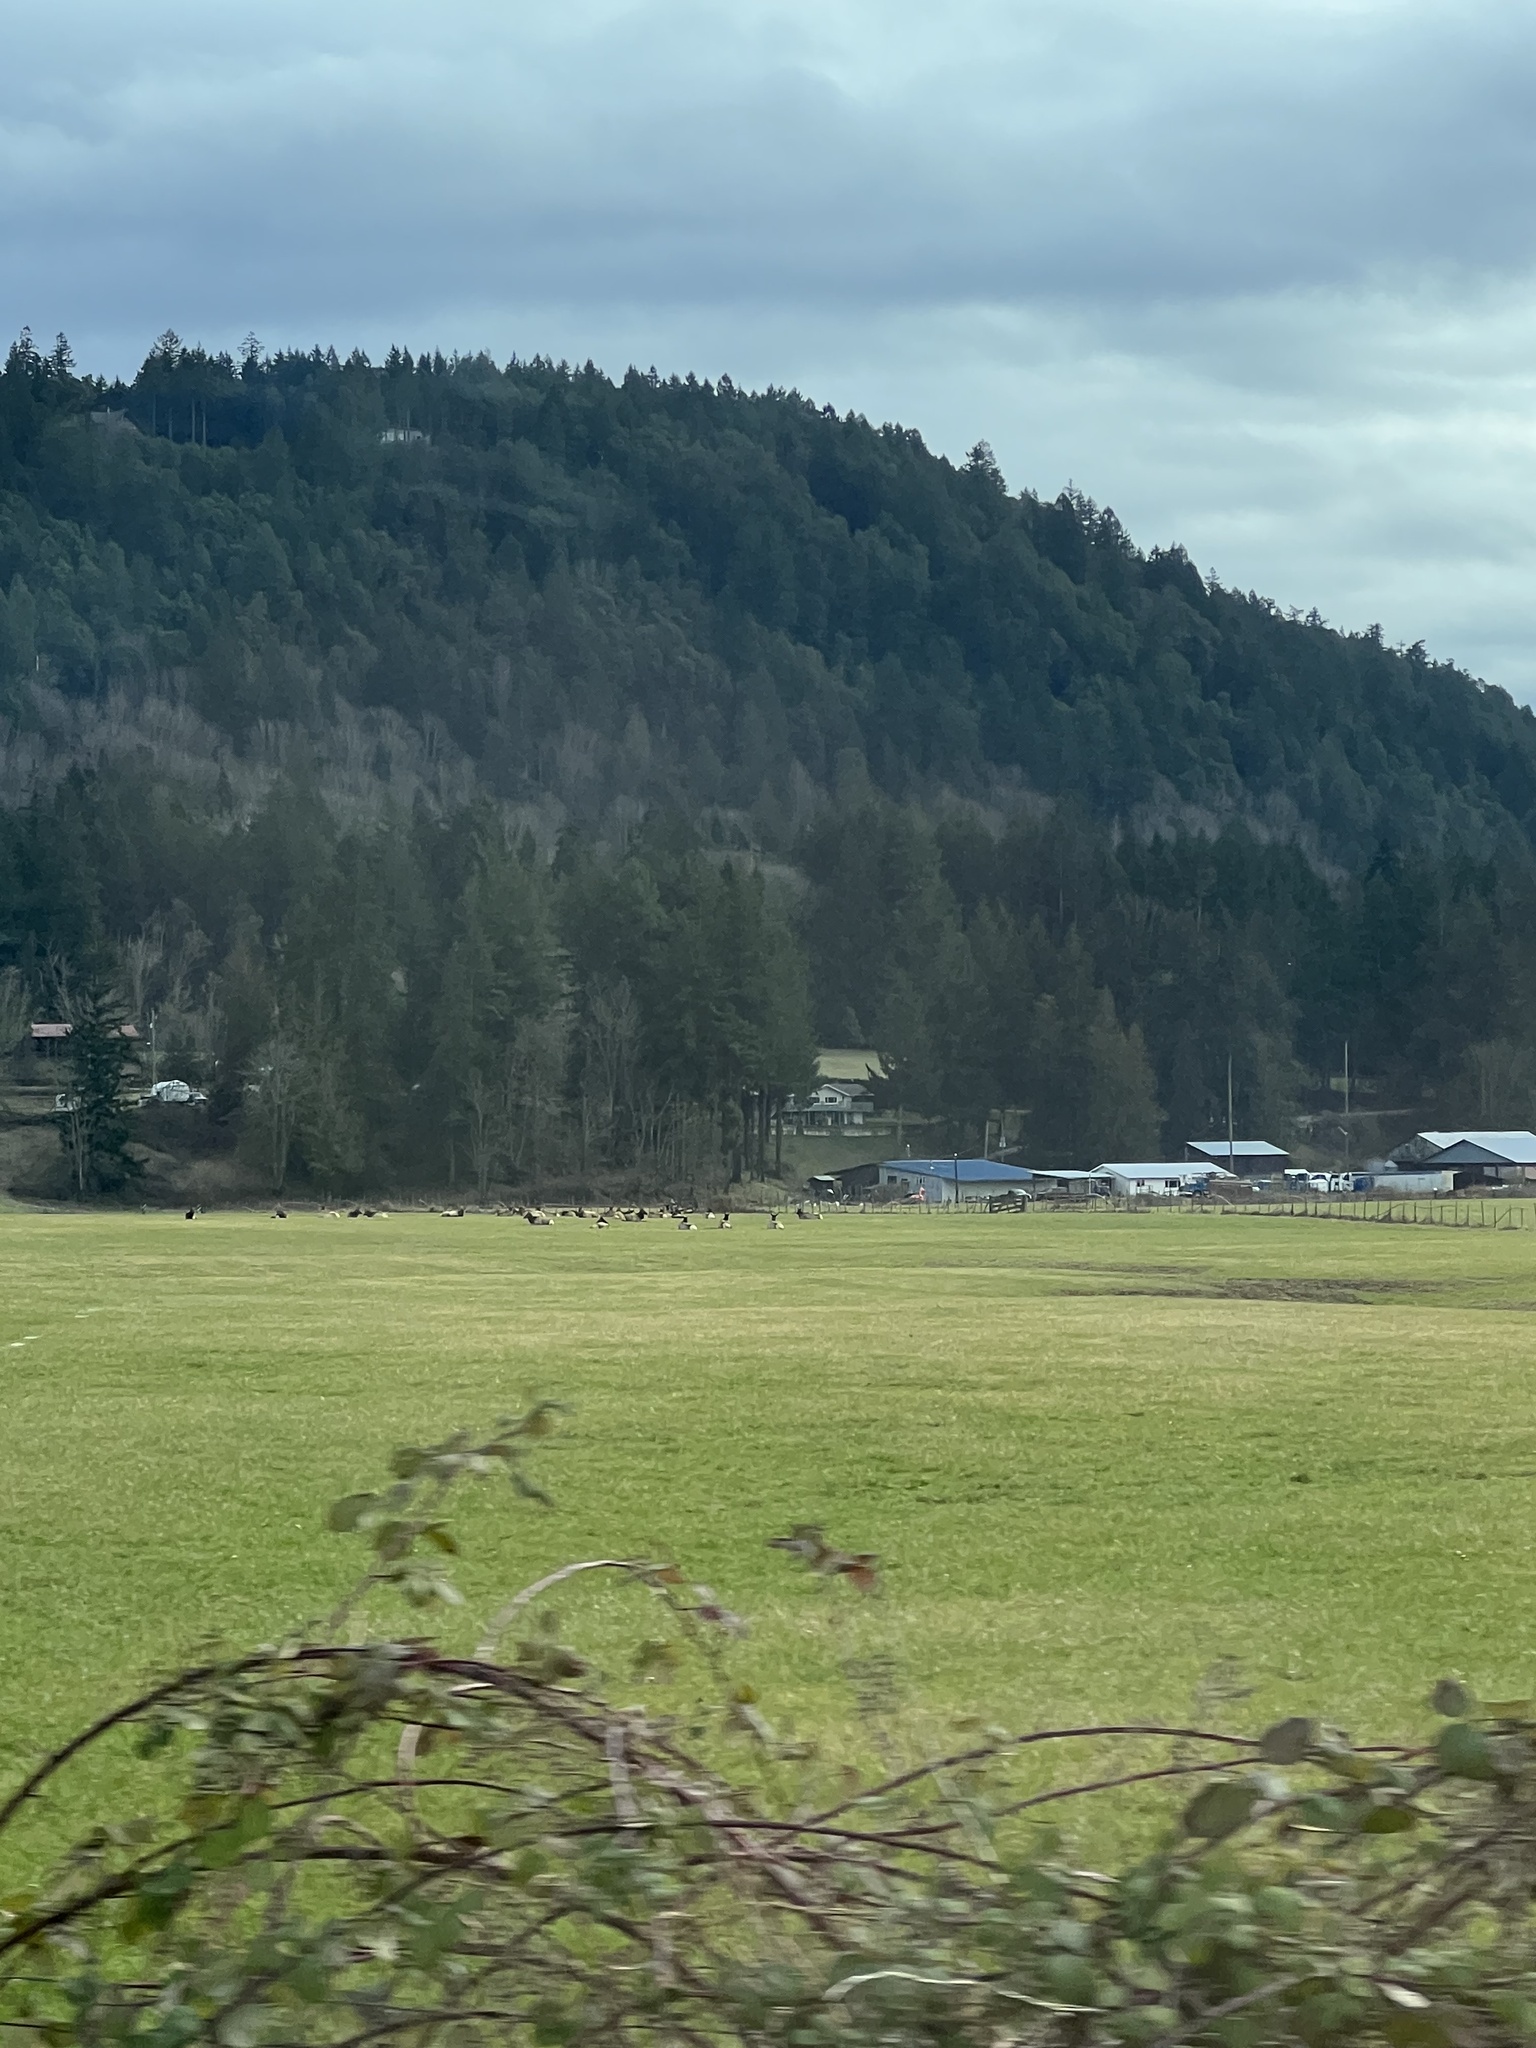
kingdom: Animalia
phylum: Chordata
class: Mammalia
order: Artiodactyla
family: Cervidae
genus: Cervus
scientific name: Cervus elaphus
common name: Red deer
